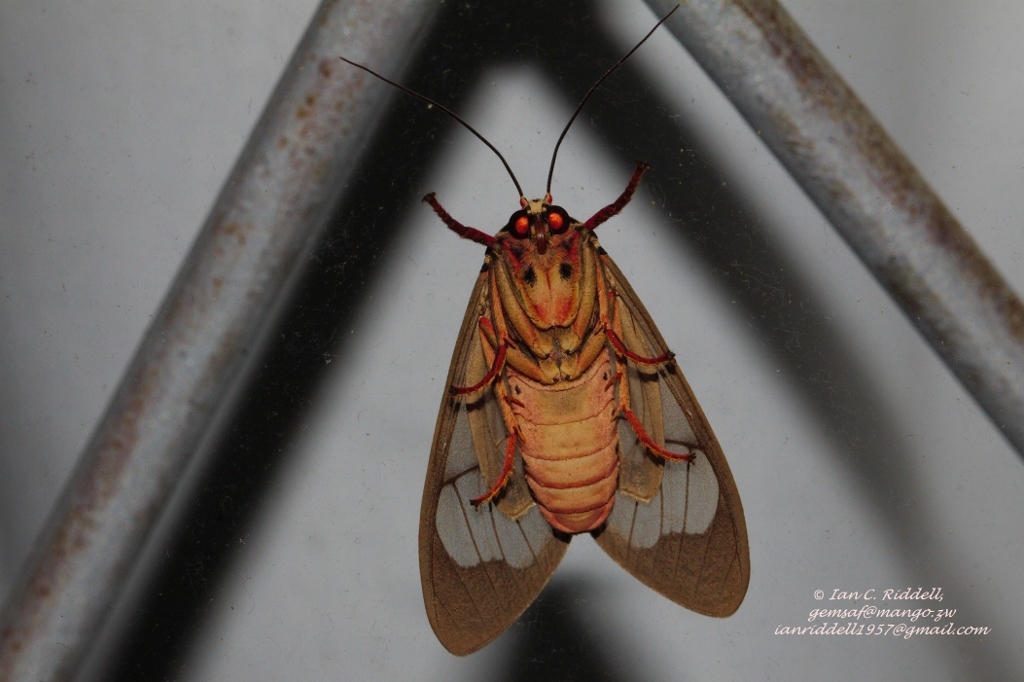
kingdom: Animalia
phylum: Arthropoda
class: Insecta
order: Lepidoptera
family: Erebidae
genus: Amerila
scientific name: Amerila affinis
